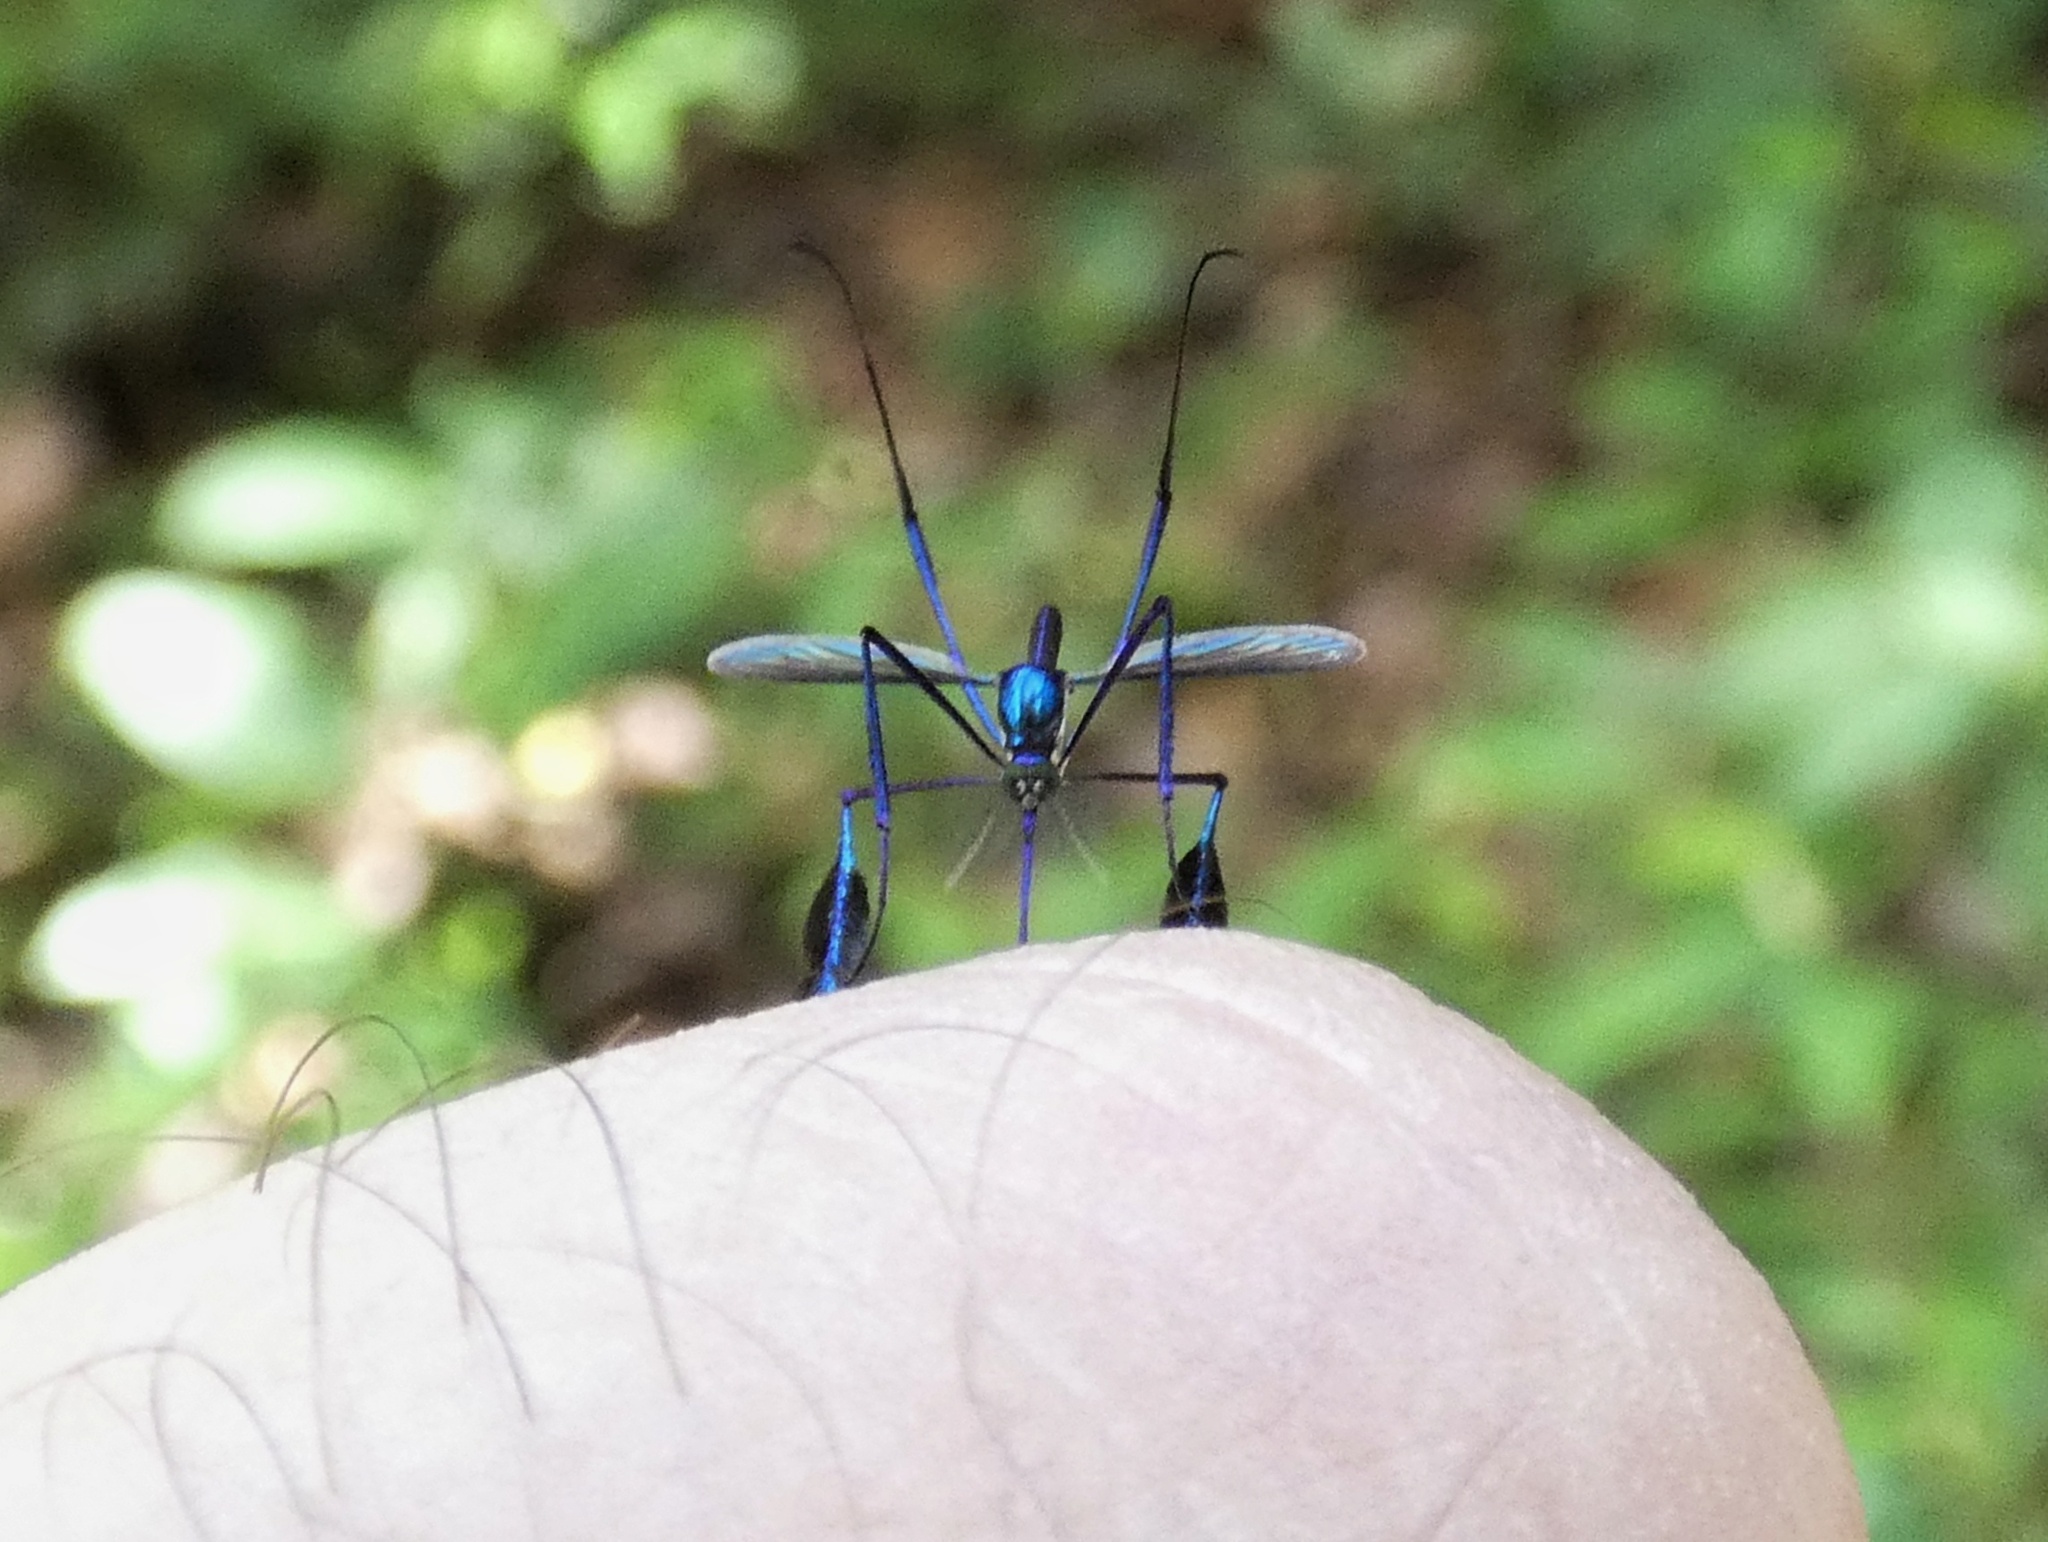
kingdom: Animalia
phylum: Arthropoda
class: Insecta
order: Diptera
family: Culicidae
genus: Sabethes
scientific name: Sabethes cyaneus
